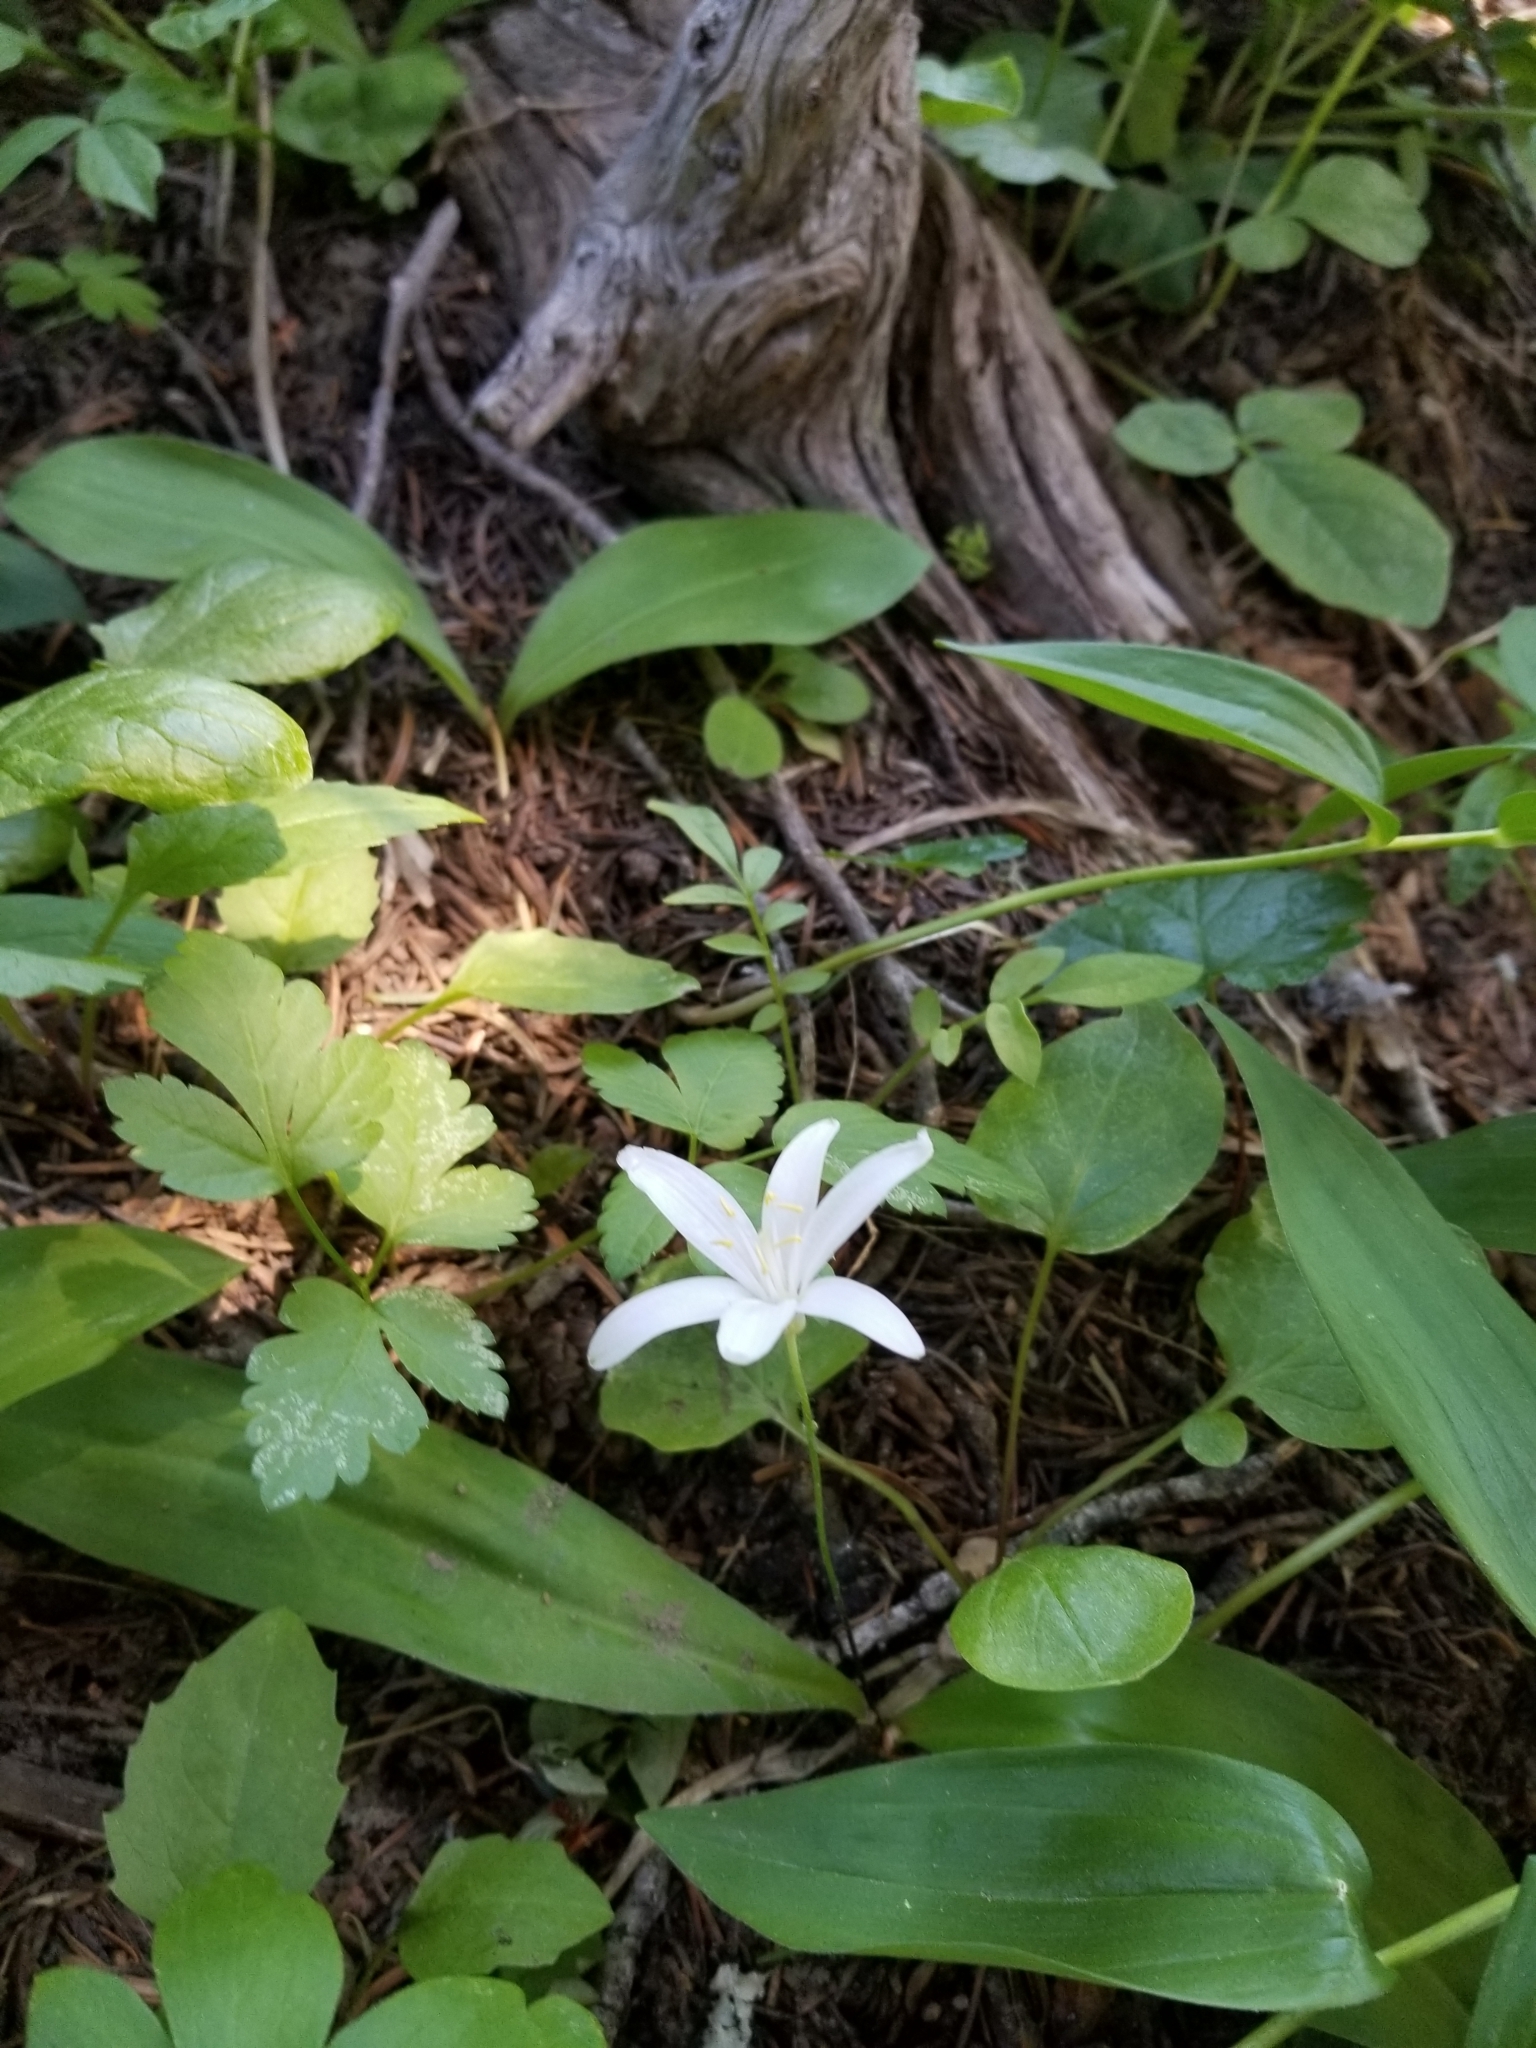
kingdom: Plantae
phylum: Tracheophyta
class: Liliopsida
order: Liliales
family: Liliaceae
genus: Clintonia
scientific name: Clintonia uniflora
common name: Queen's cup
